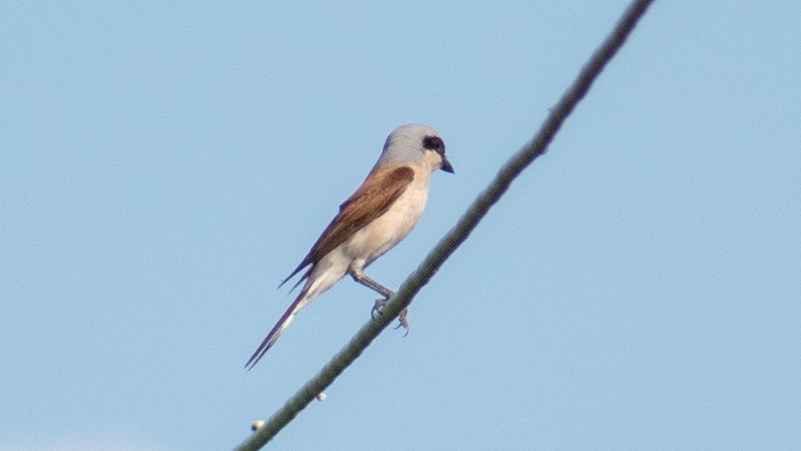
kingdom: Animalia
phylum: Chordata
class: Aves
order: Passeriformes
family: Laniidae
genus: Lanius
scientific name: Lanius collurio
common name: Red-backed shrike
